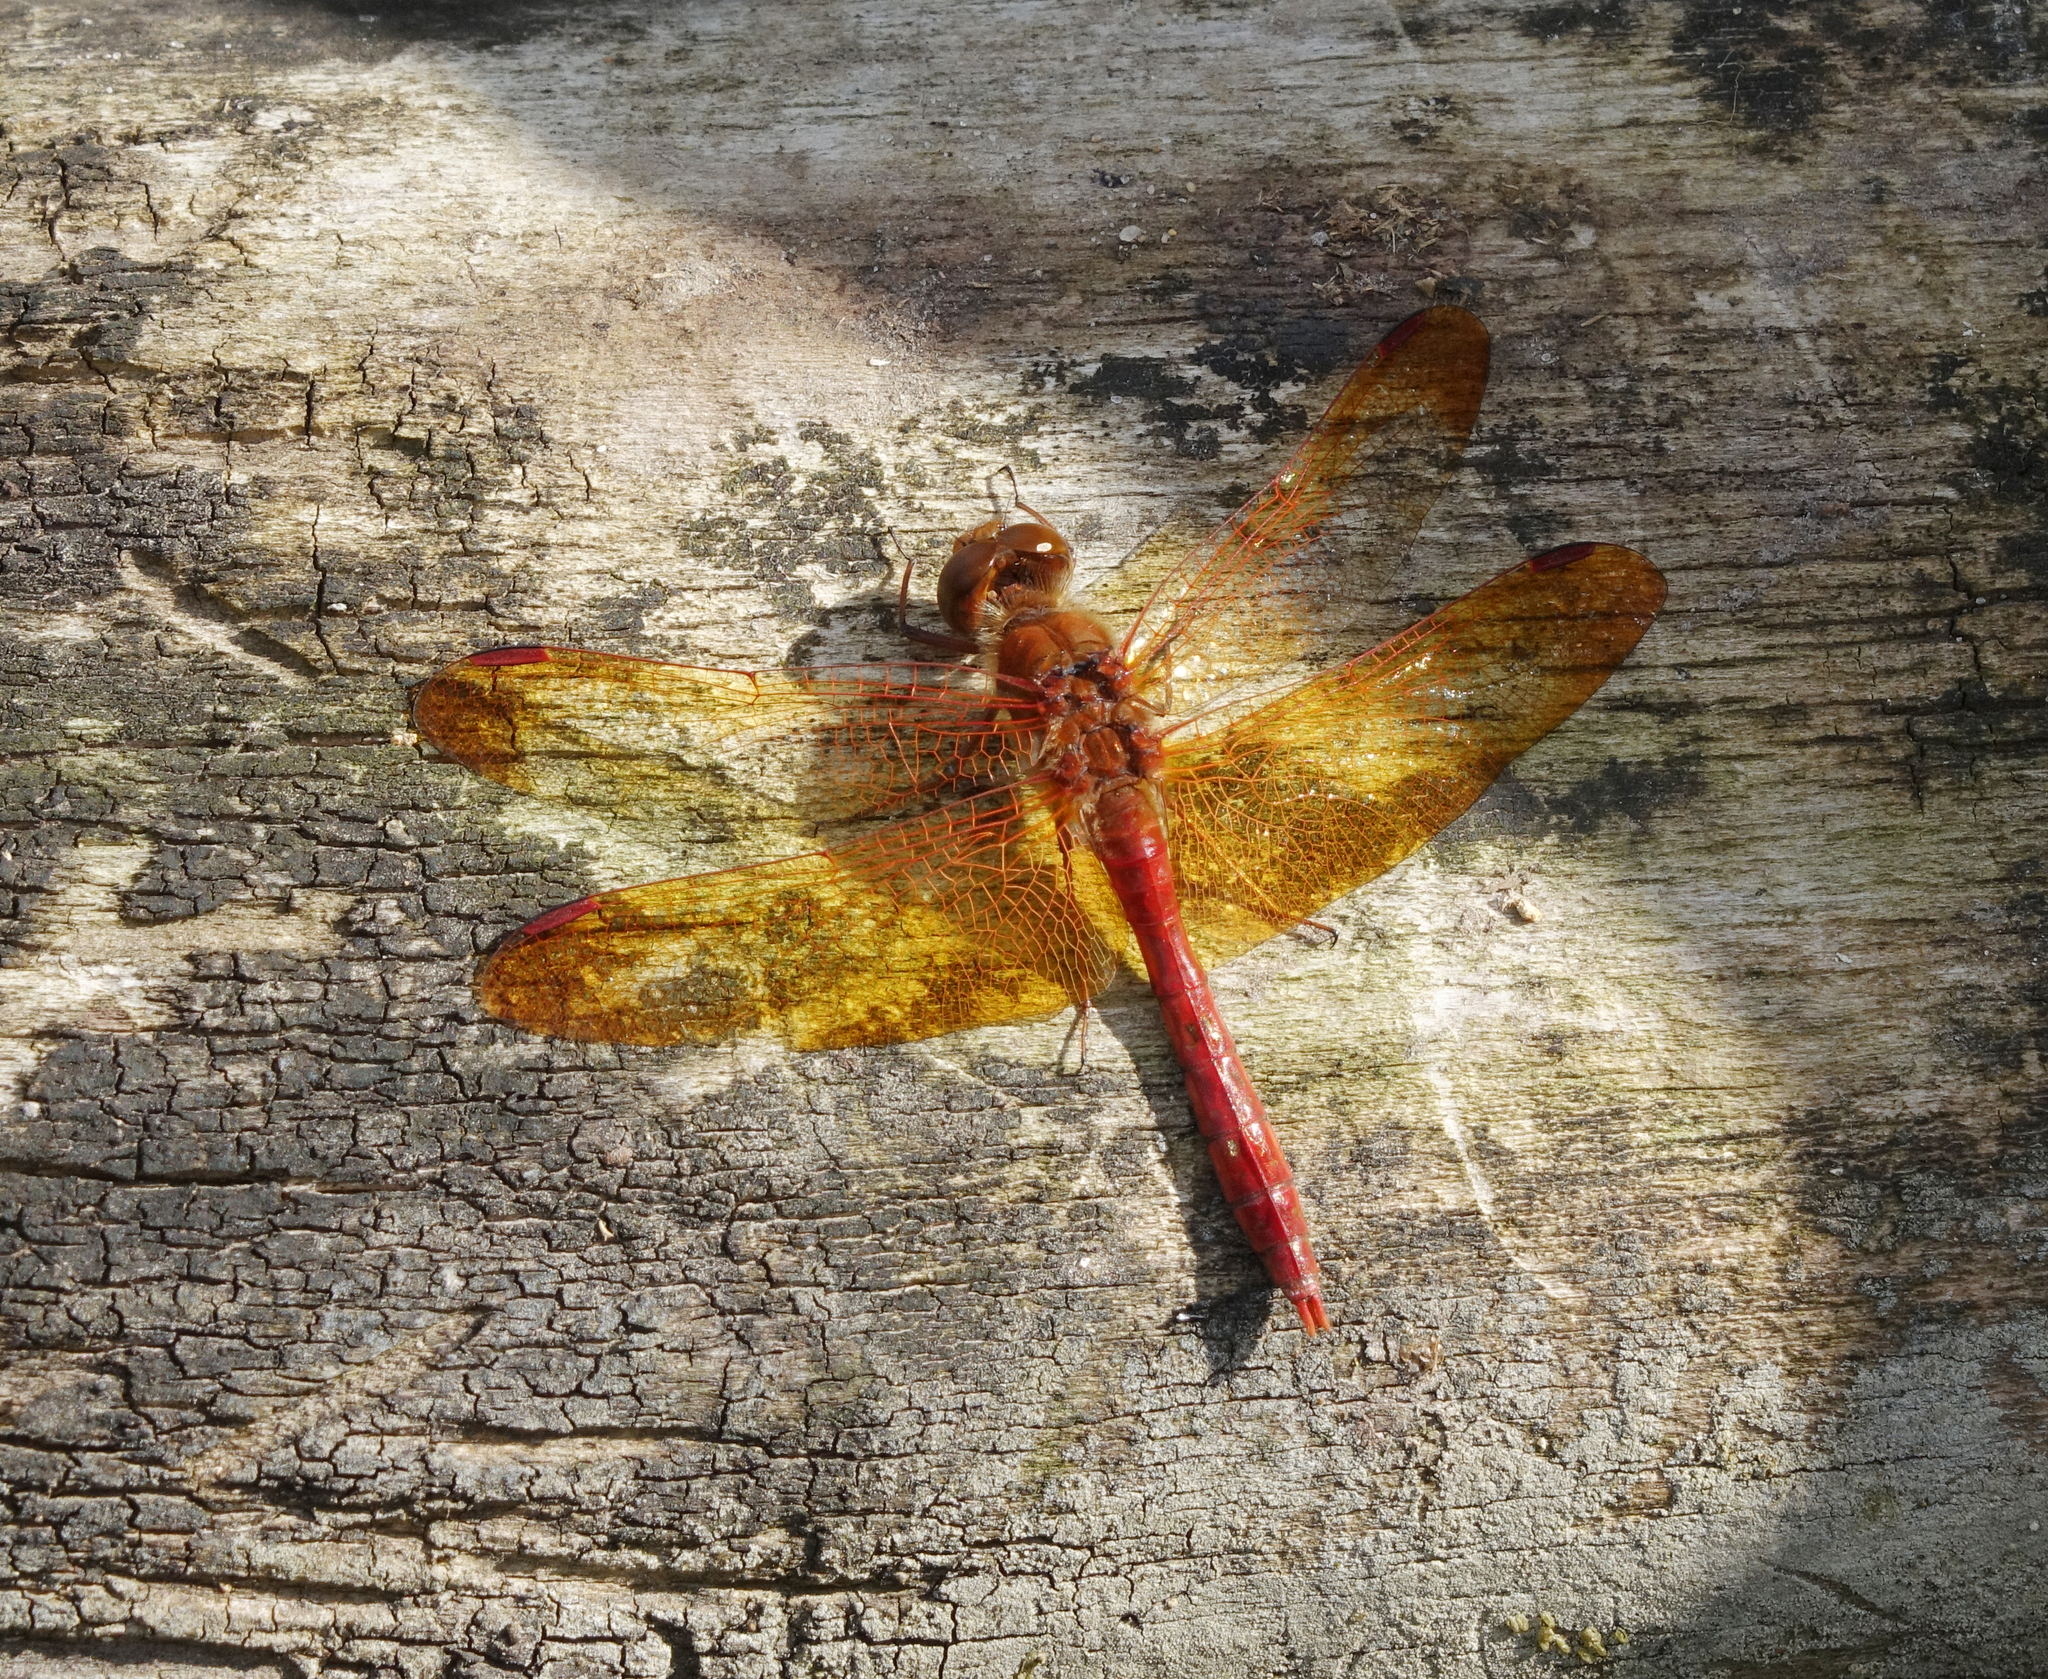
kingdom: Animalia
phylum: Arthropoda
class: Insecta
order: Odonata
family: Libellulidae
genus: Sympetrum
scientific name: Sympetrum croceolum
